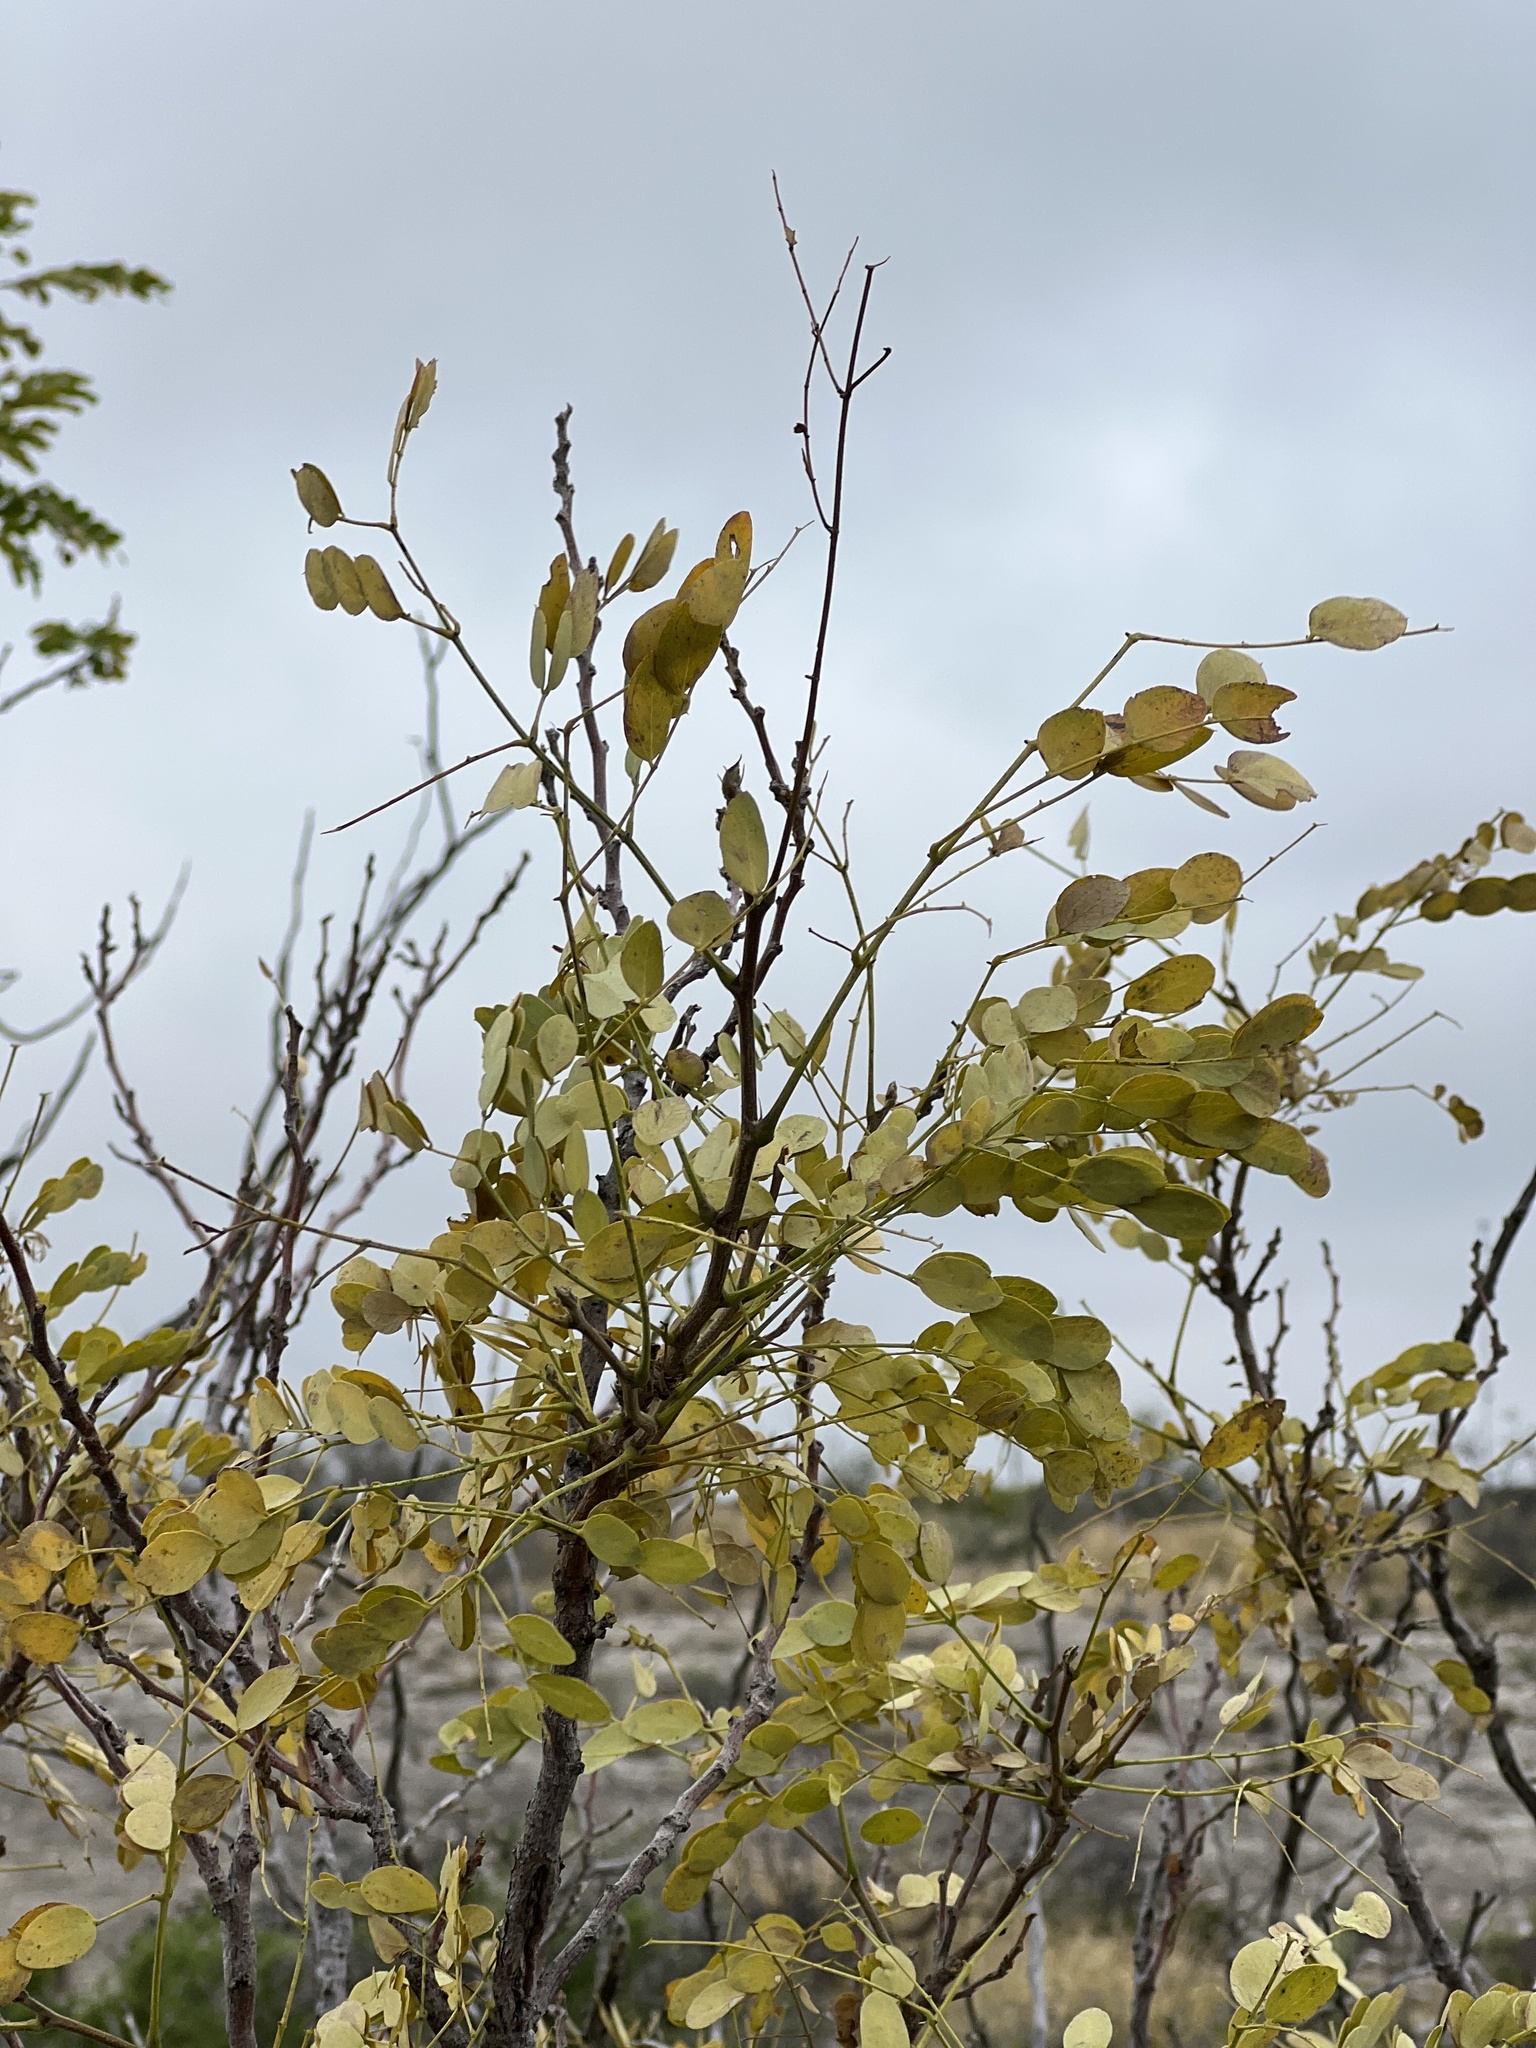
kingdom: Plantae
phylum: Tracheophyta
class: Magnoliopsida
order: Fabales
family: Fabaceae
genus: Leucaena
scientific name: Leucaena retusa
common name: Littleleaf leadtree
